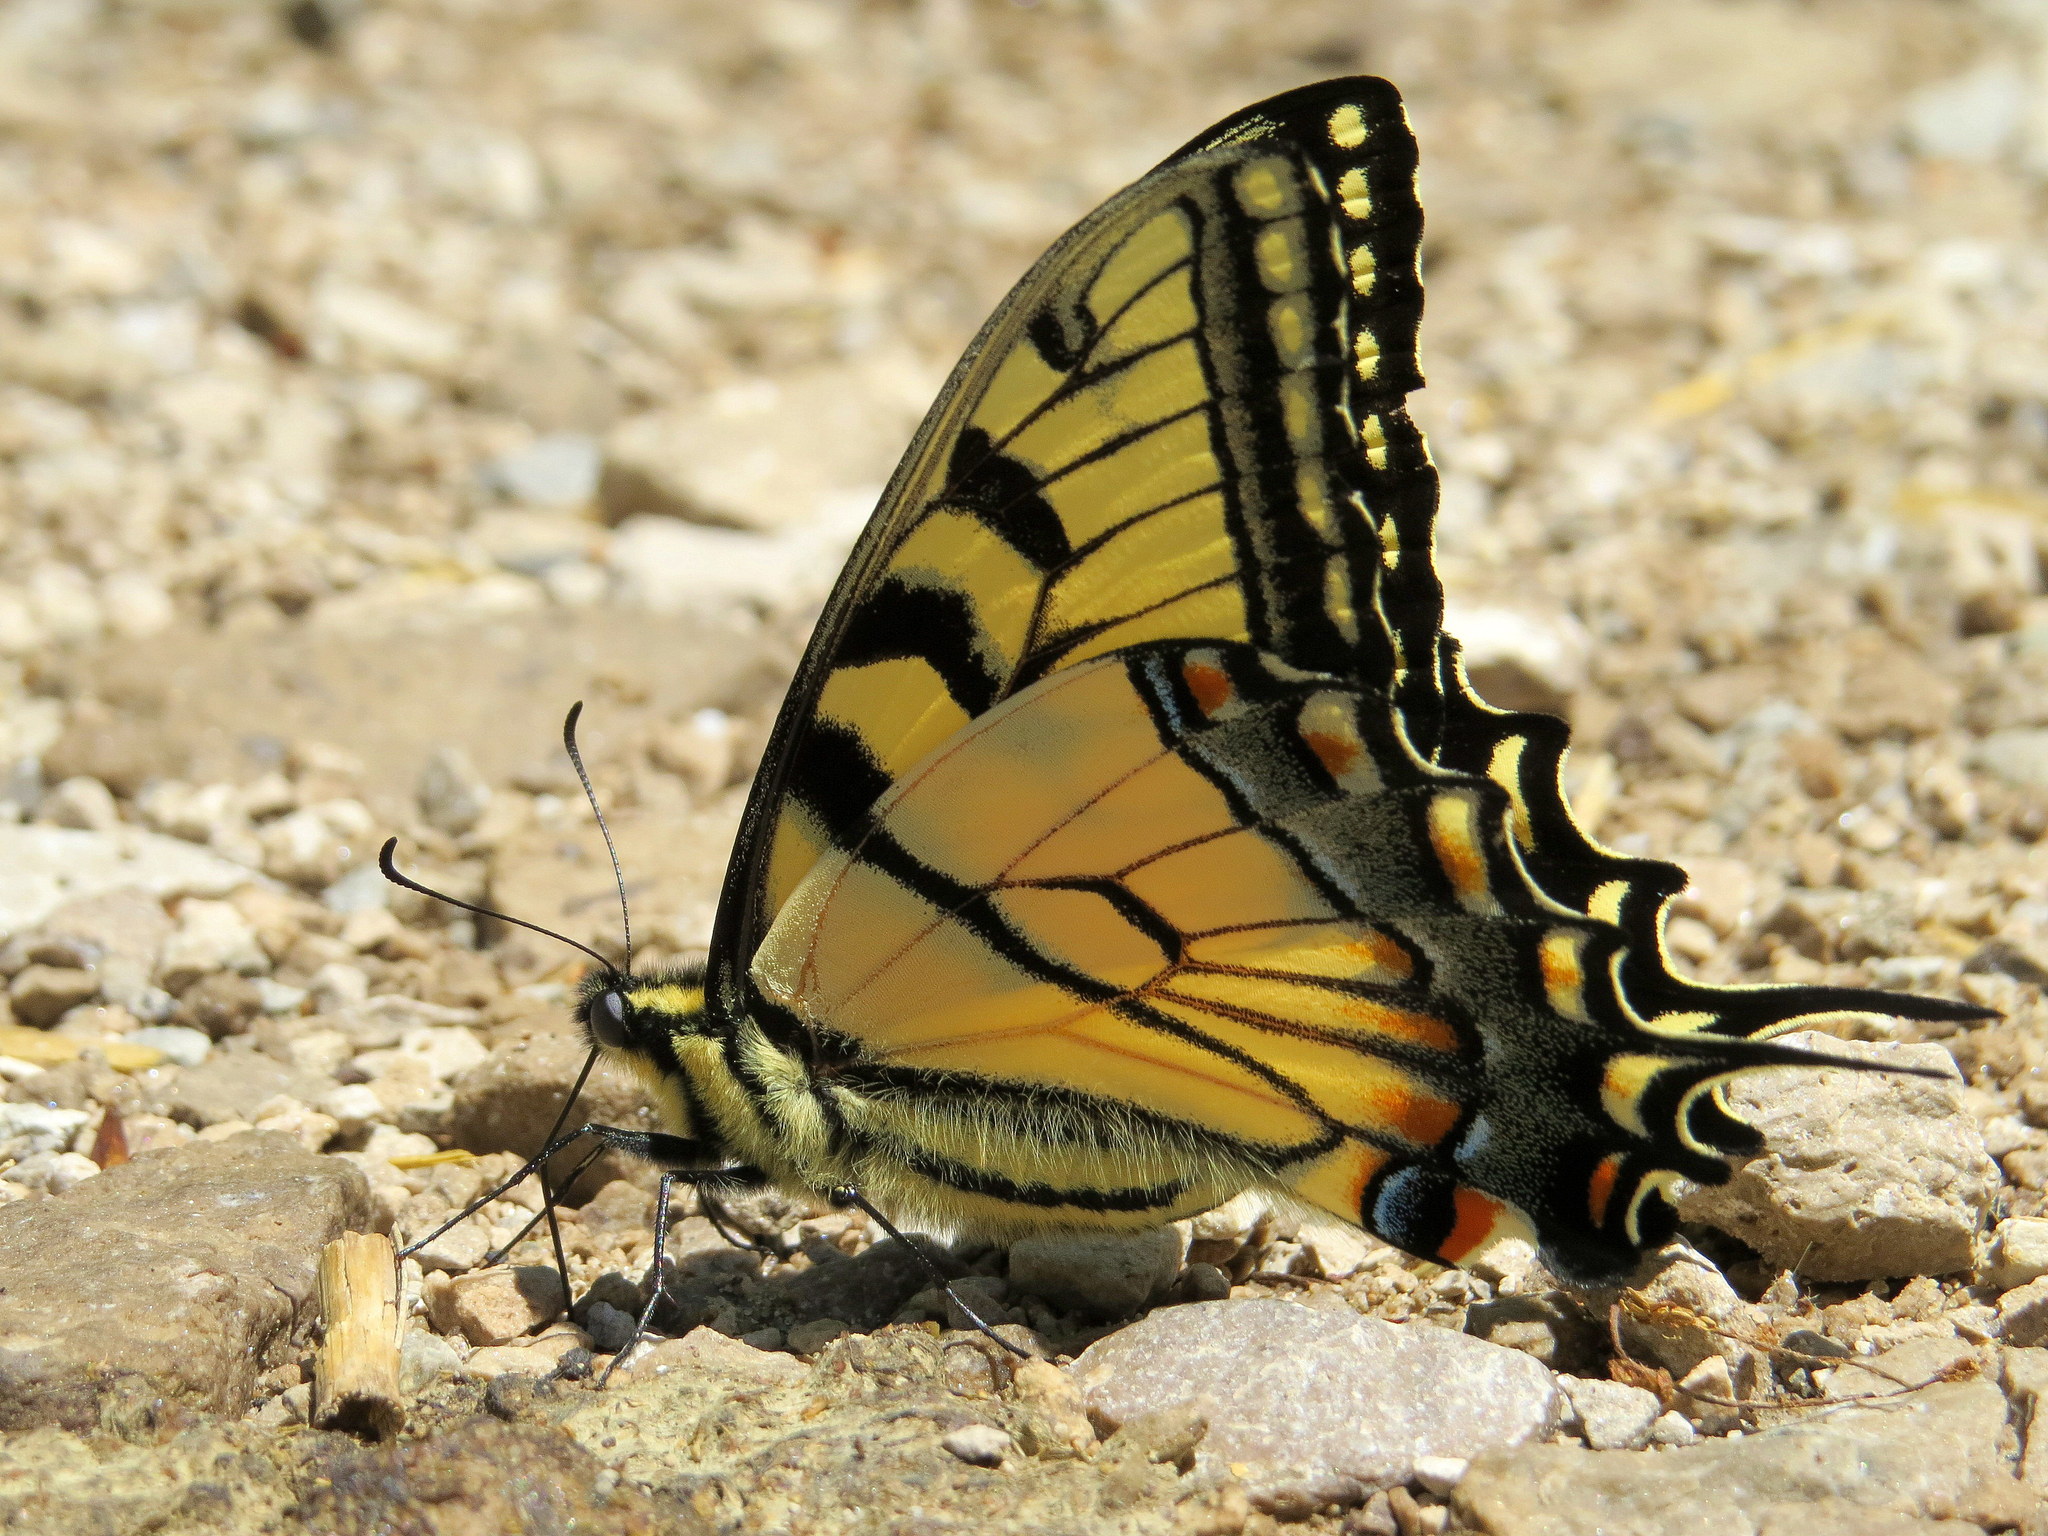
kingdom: Animalia
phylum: Arthropoda
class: Insecta
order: Lepidoptera
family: Papilionidae
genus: Papilio
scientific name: Papilio glaucus
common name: Tiger swallowtail
